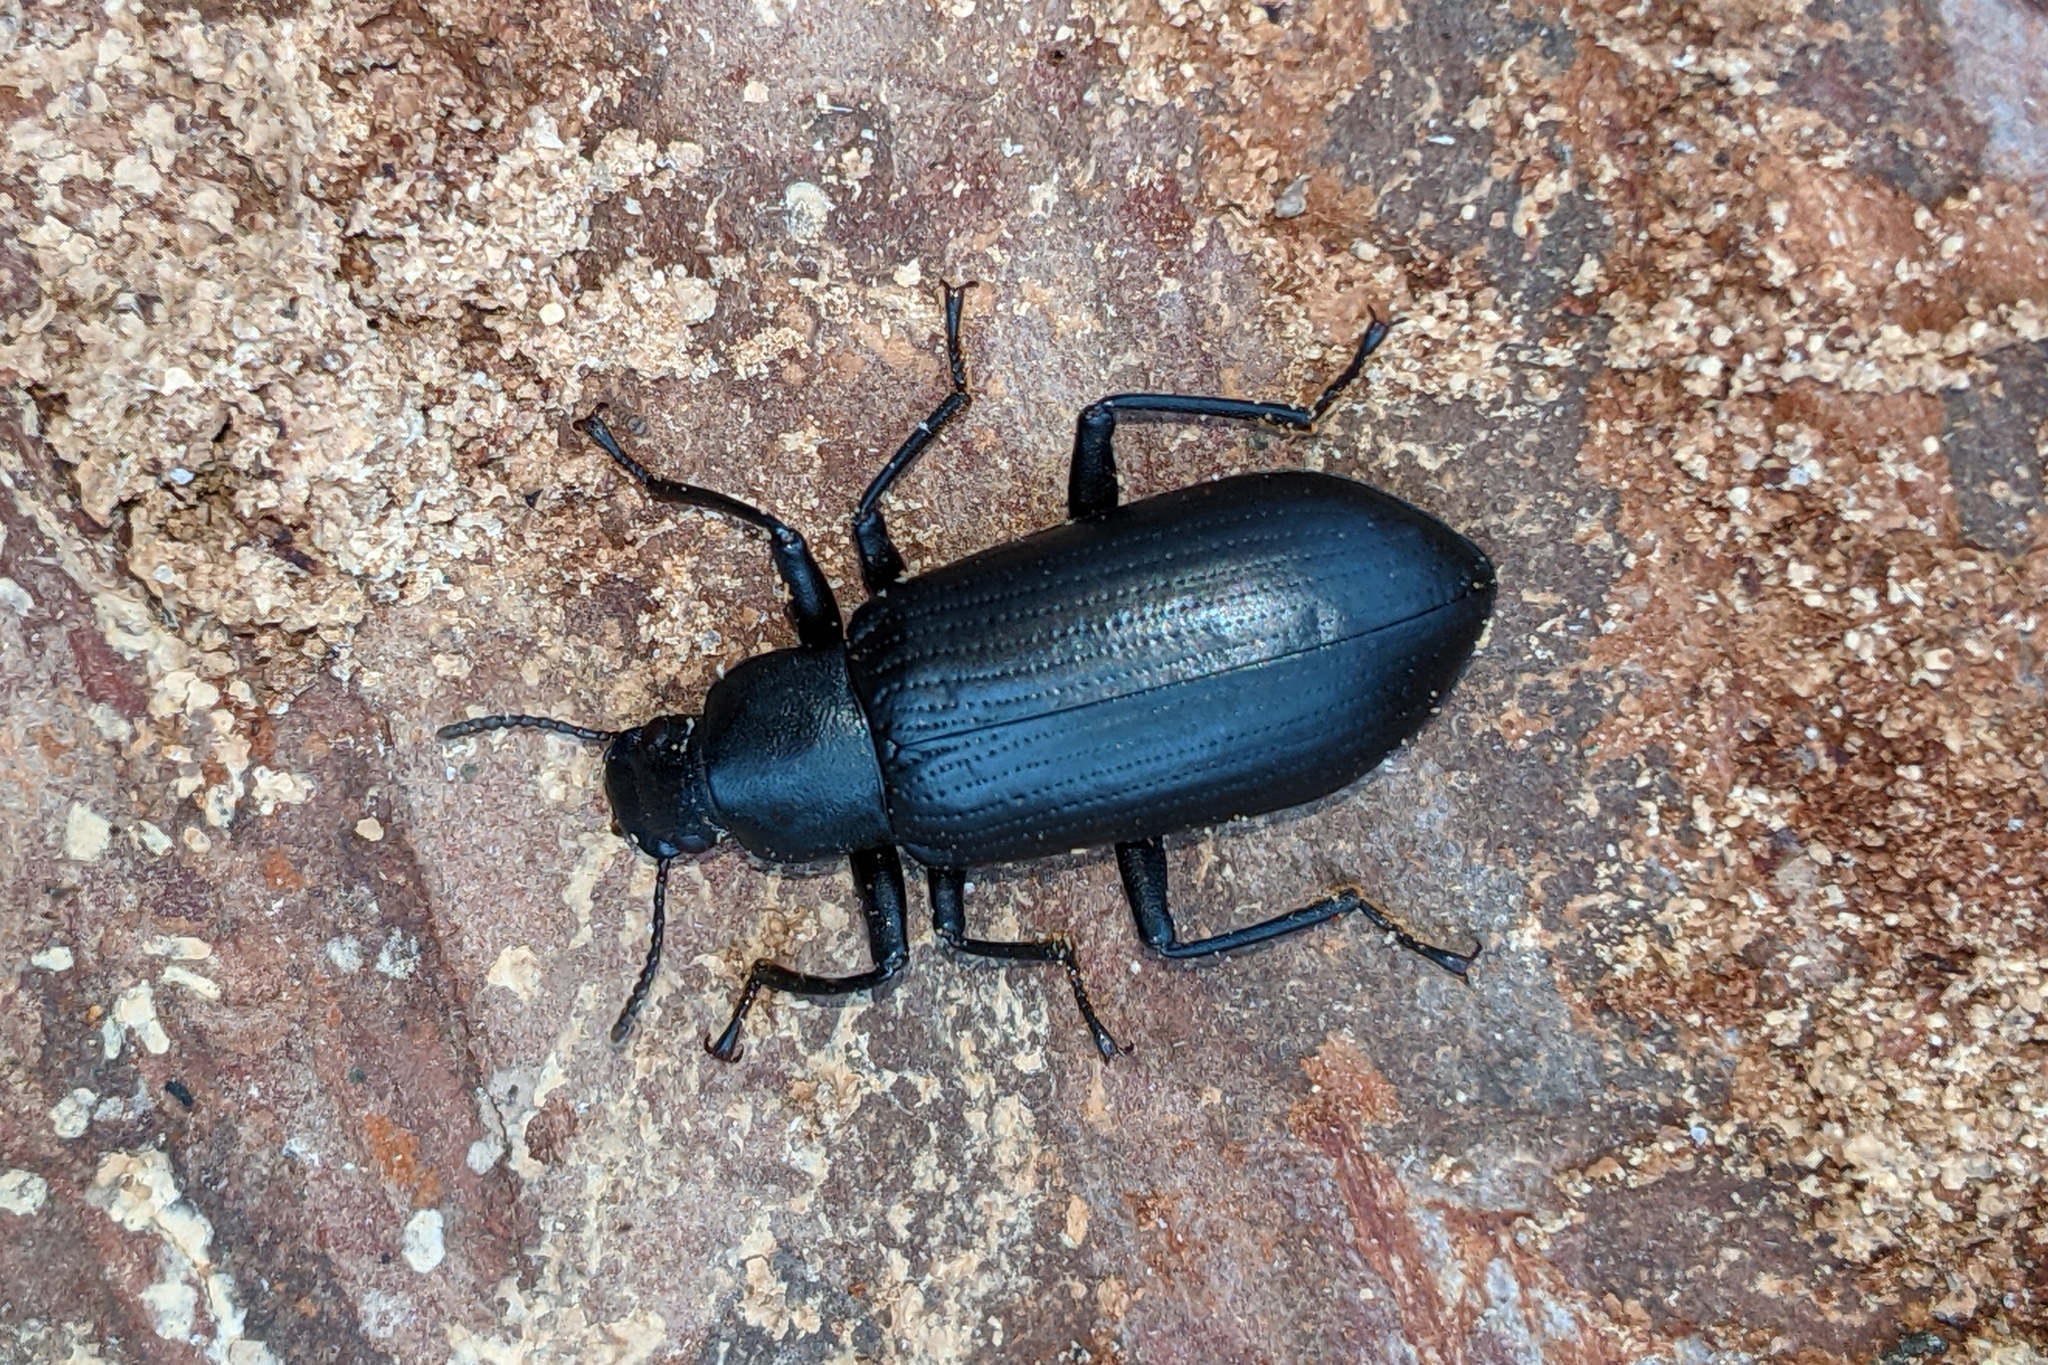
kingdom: Animalia
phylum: Arthropoda
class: Insecta
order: Coleoptera
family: Tenebrionidae
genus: Alobates
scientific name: Alobates
